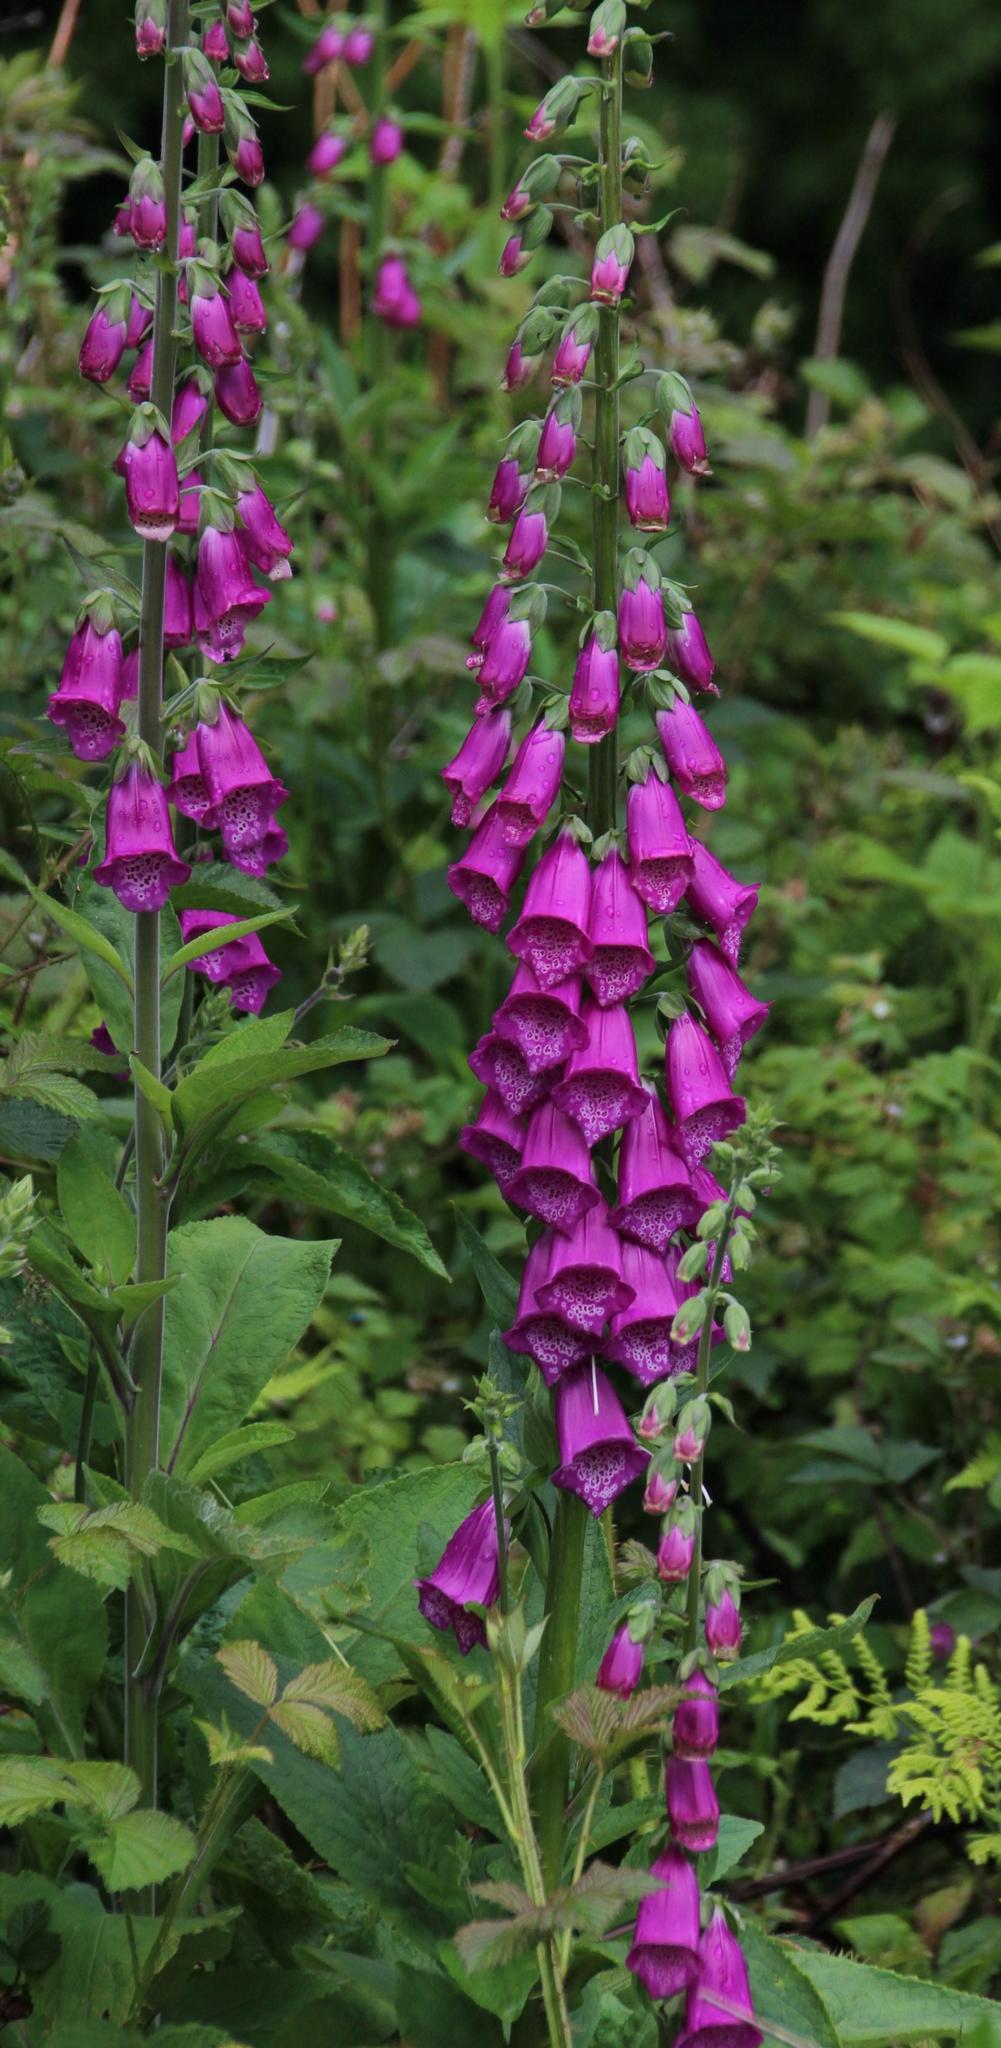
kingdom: Plantae
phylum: Tracheophyta
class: Magnoliopsida
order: Lamiales
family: Plantaginaceae
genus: Digitalis
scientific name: Digitalis purpurea
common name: Foxglove
